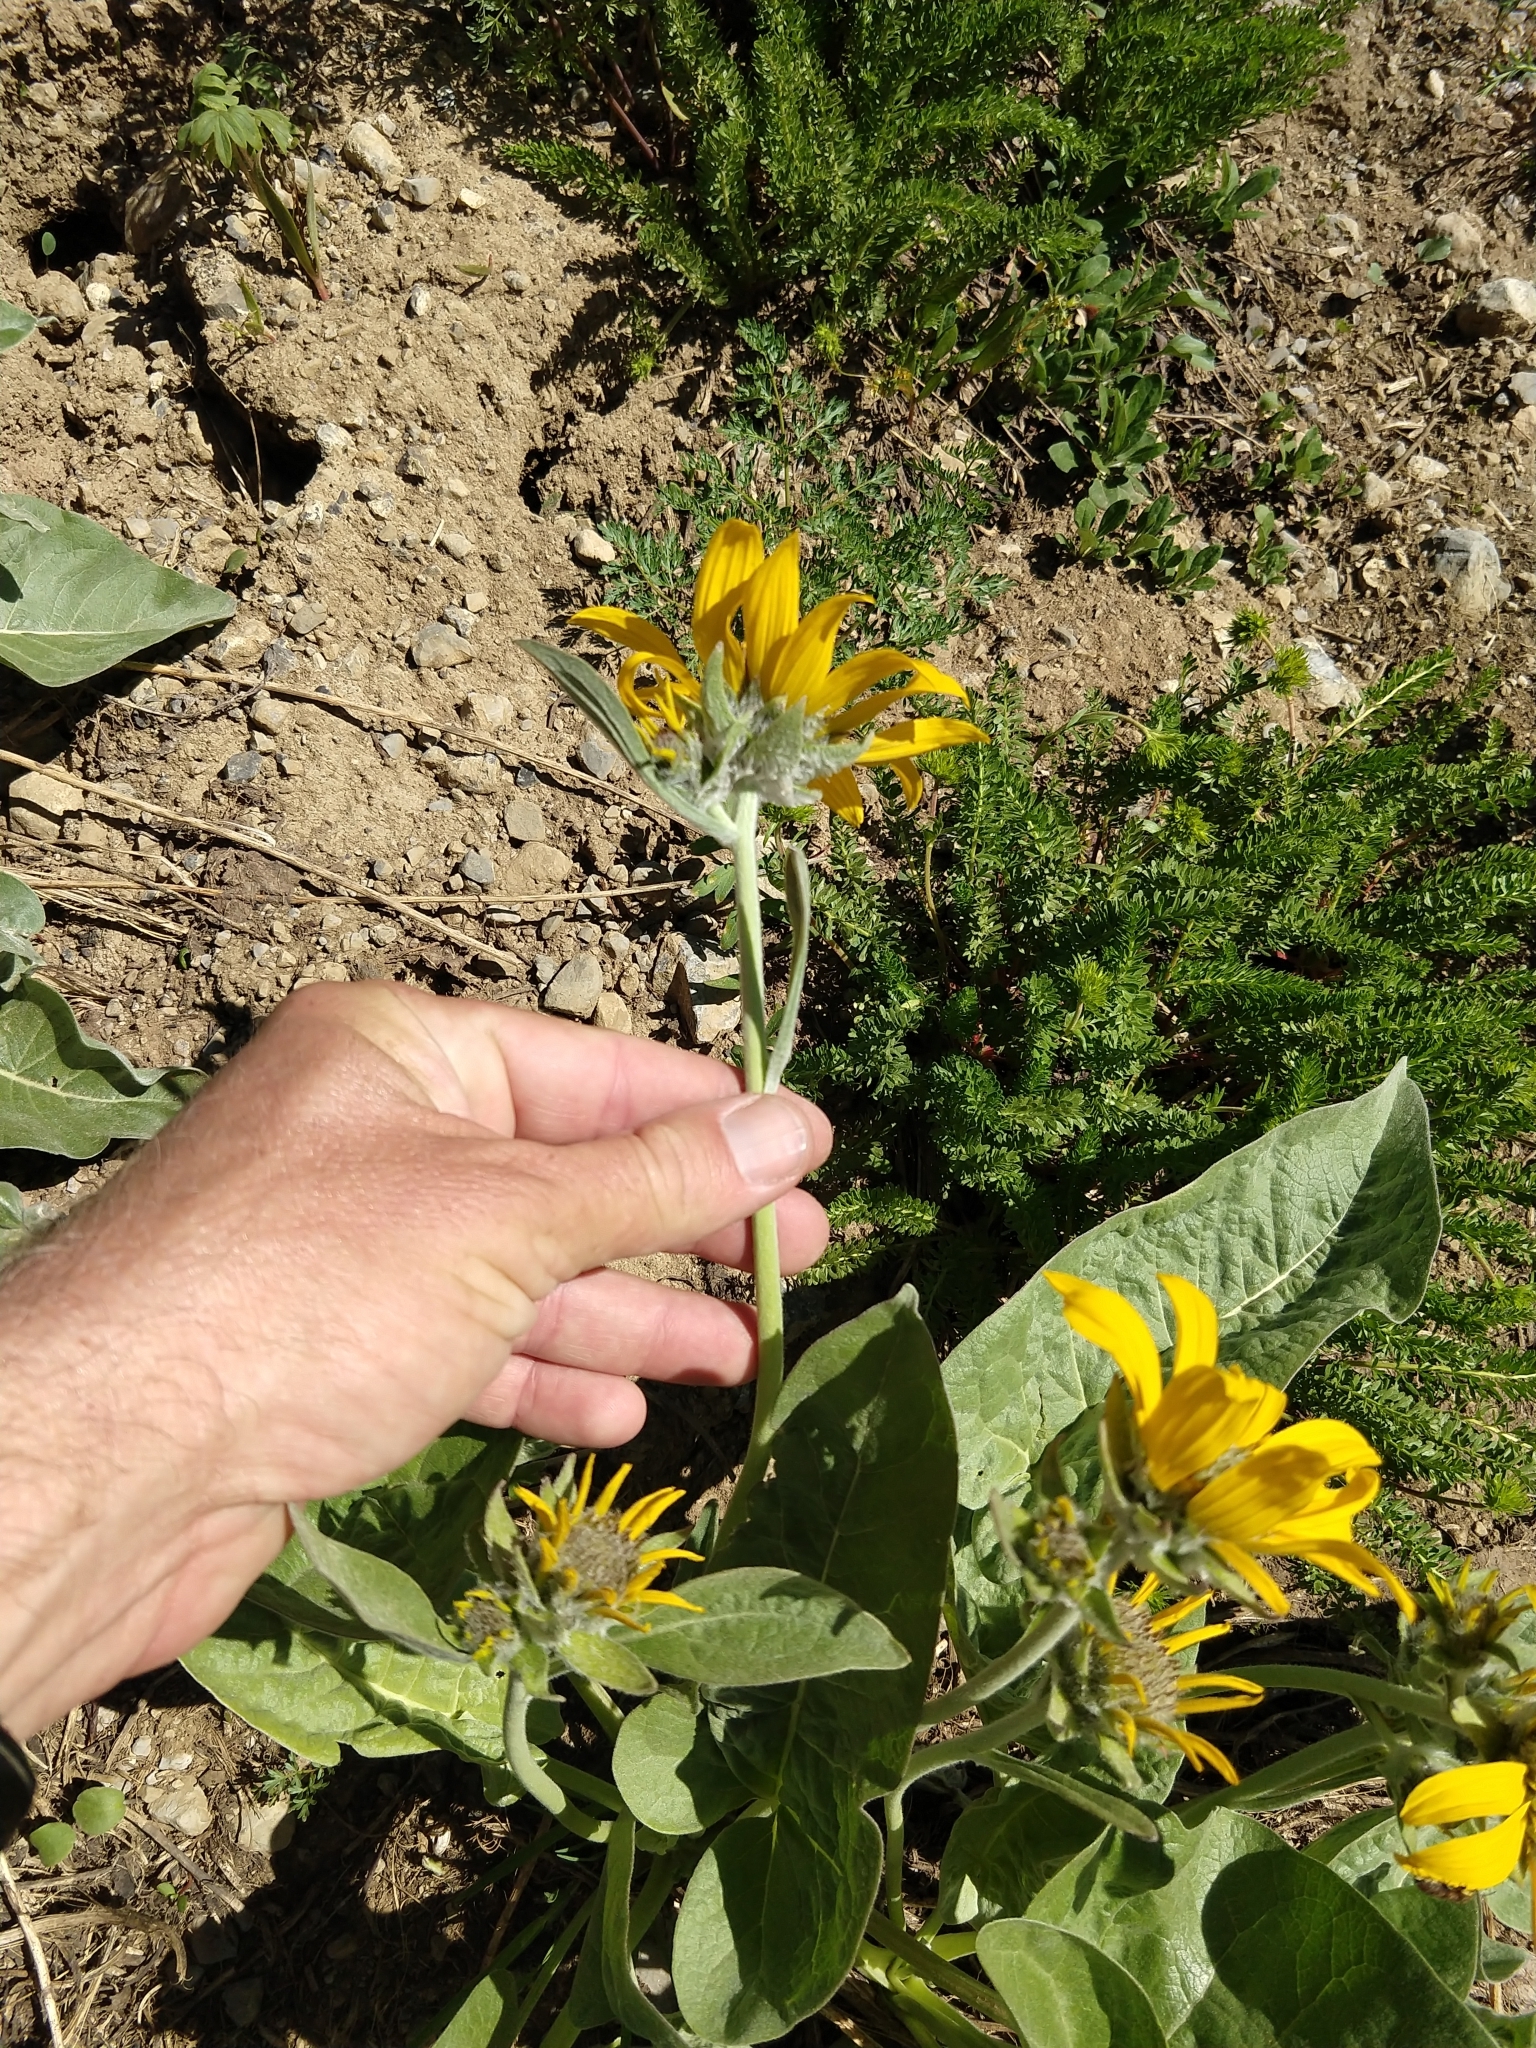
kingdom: Plantae
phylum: Tracheophyta
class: Magnoliopsida
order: Asterales
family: Asteraceae
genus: Wyethia
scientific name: Wyethia sagittata
